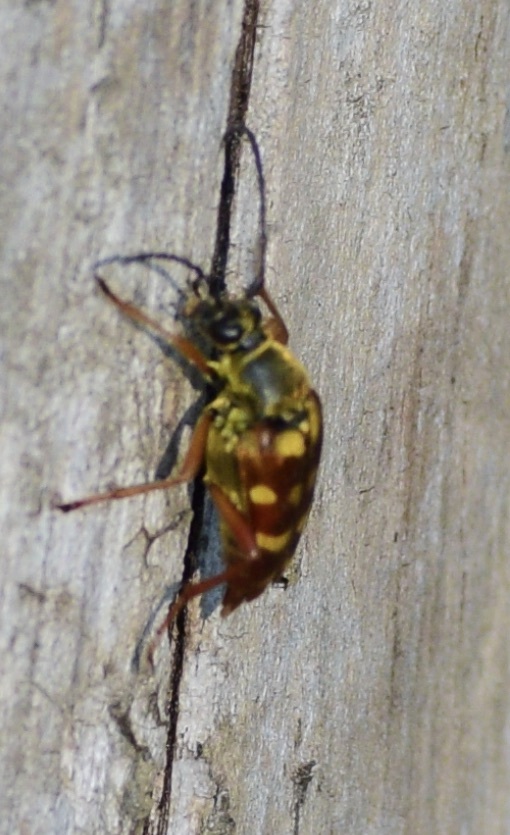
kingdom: Animalia
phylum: Arthropoda
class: Insecta
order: Coleoptera
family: Cerambycidae
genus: Typocerus
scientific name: Typocerus velutinus
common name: Banded longhorn beetle
